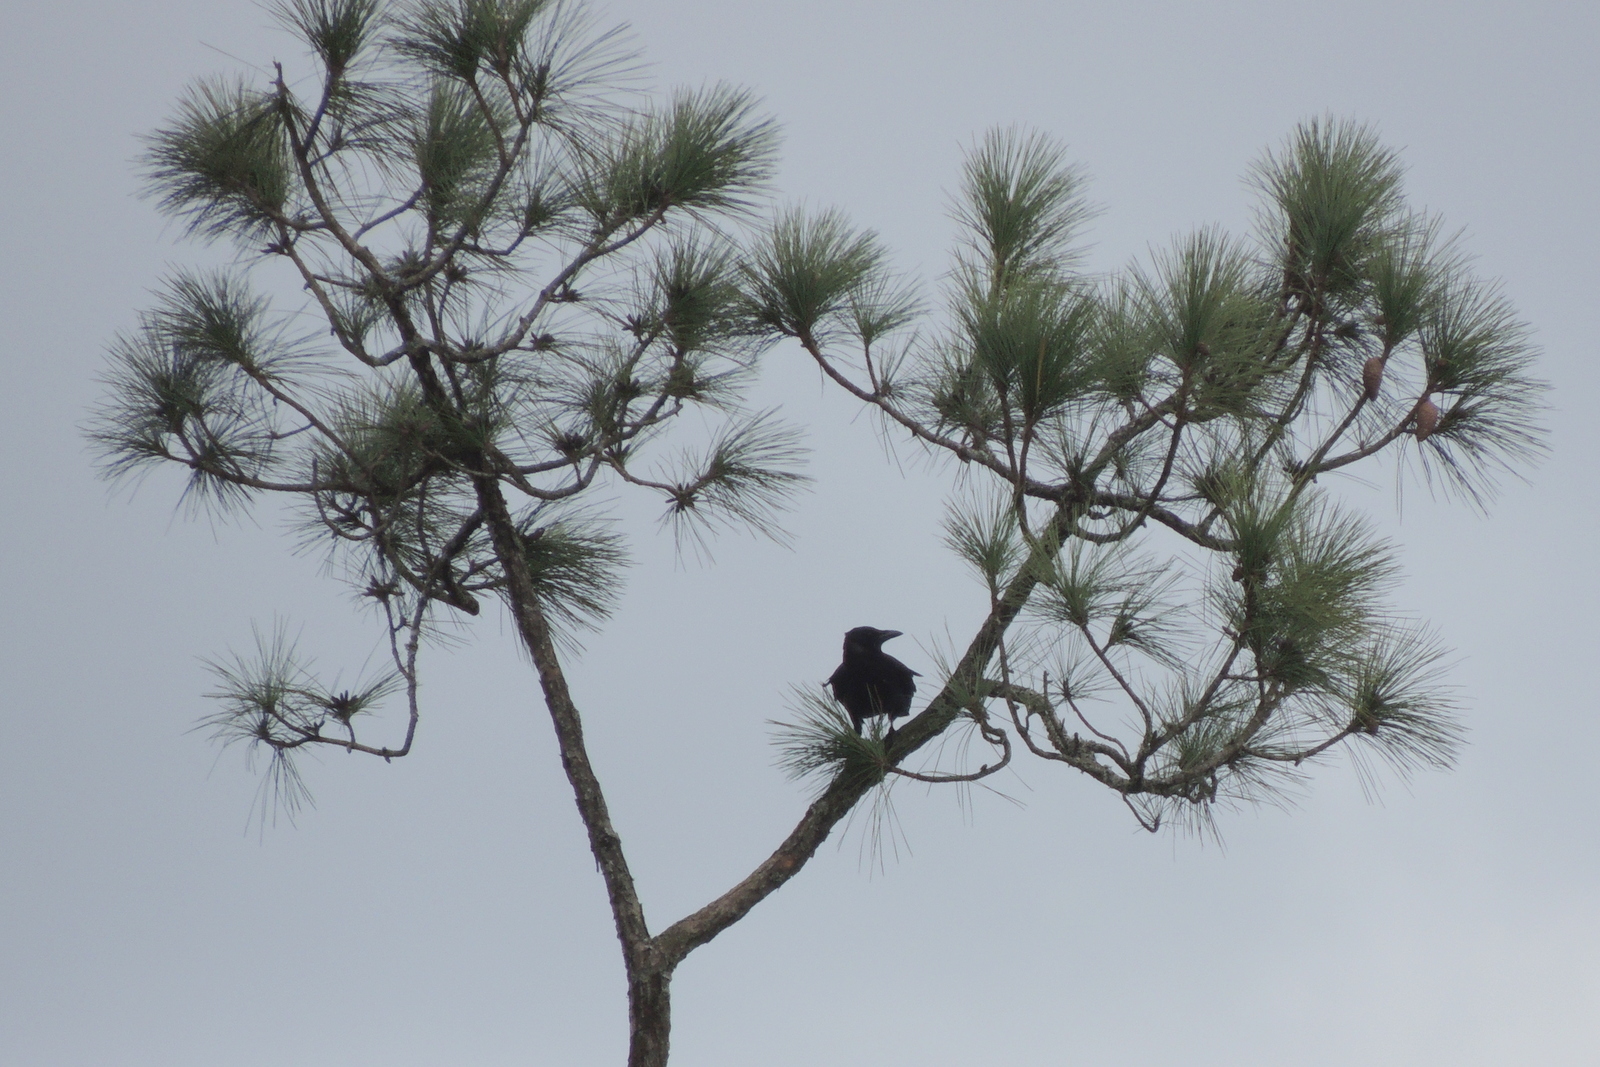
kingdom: Animalia
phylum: Chordata
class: Aves
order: Passeriformes
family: Corvidae
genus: Corvus
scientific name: Corvus
